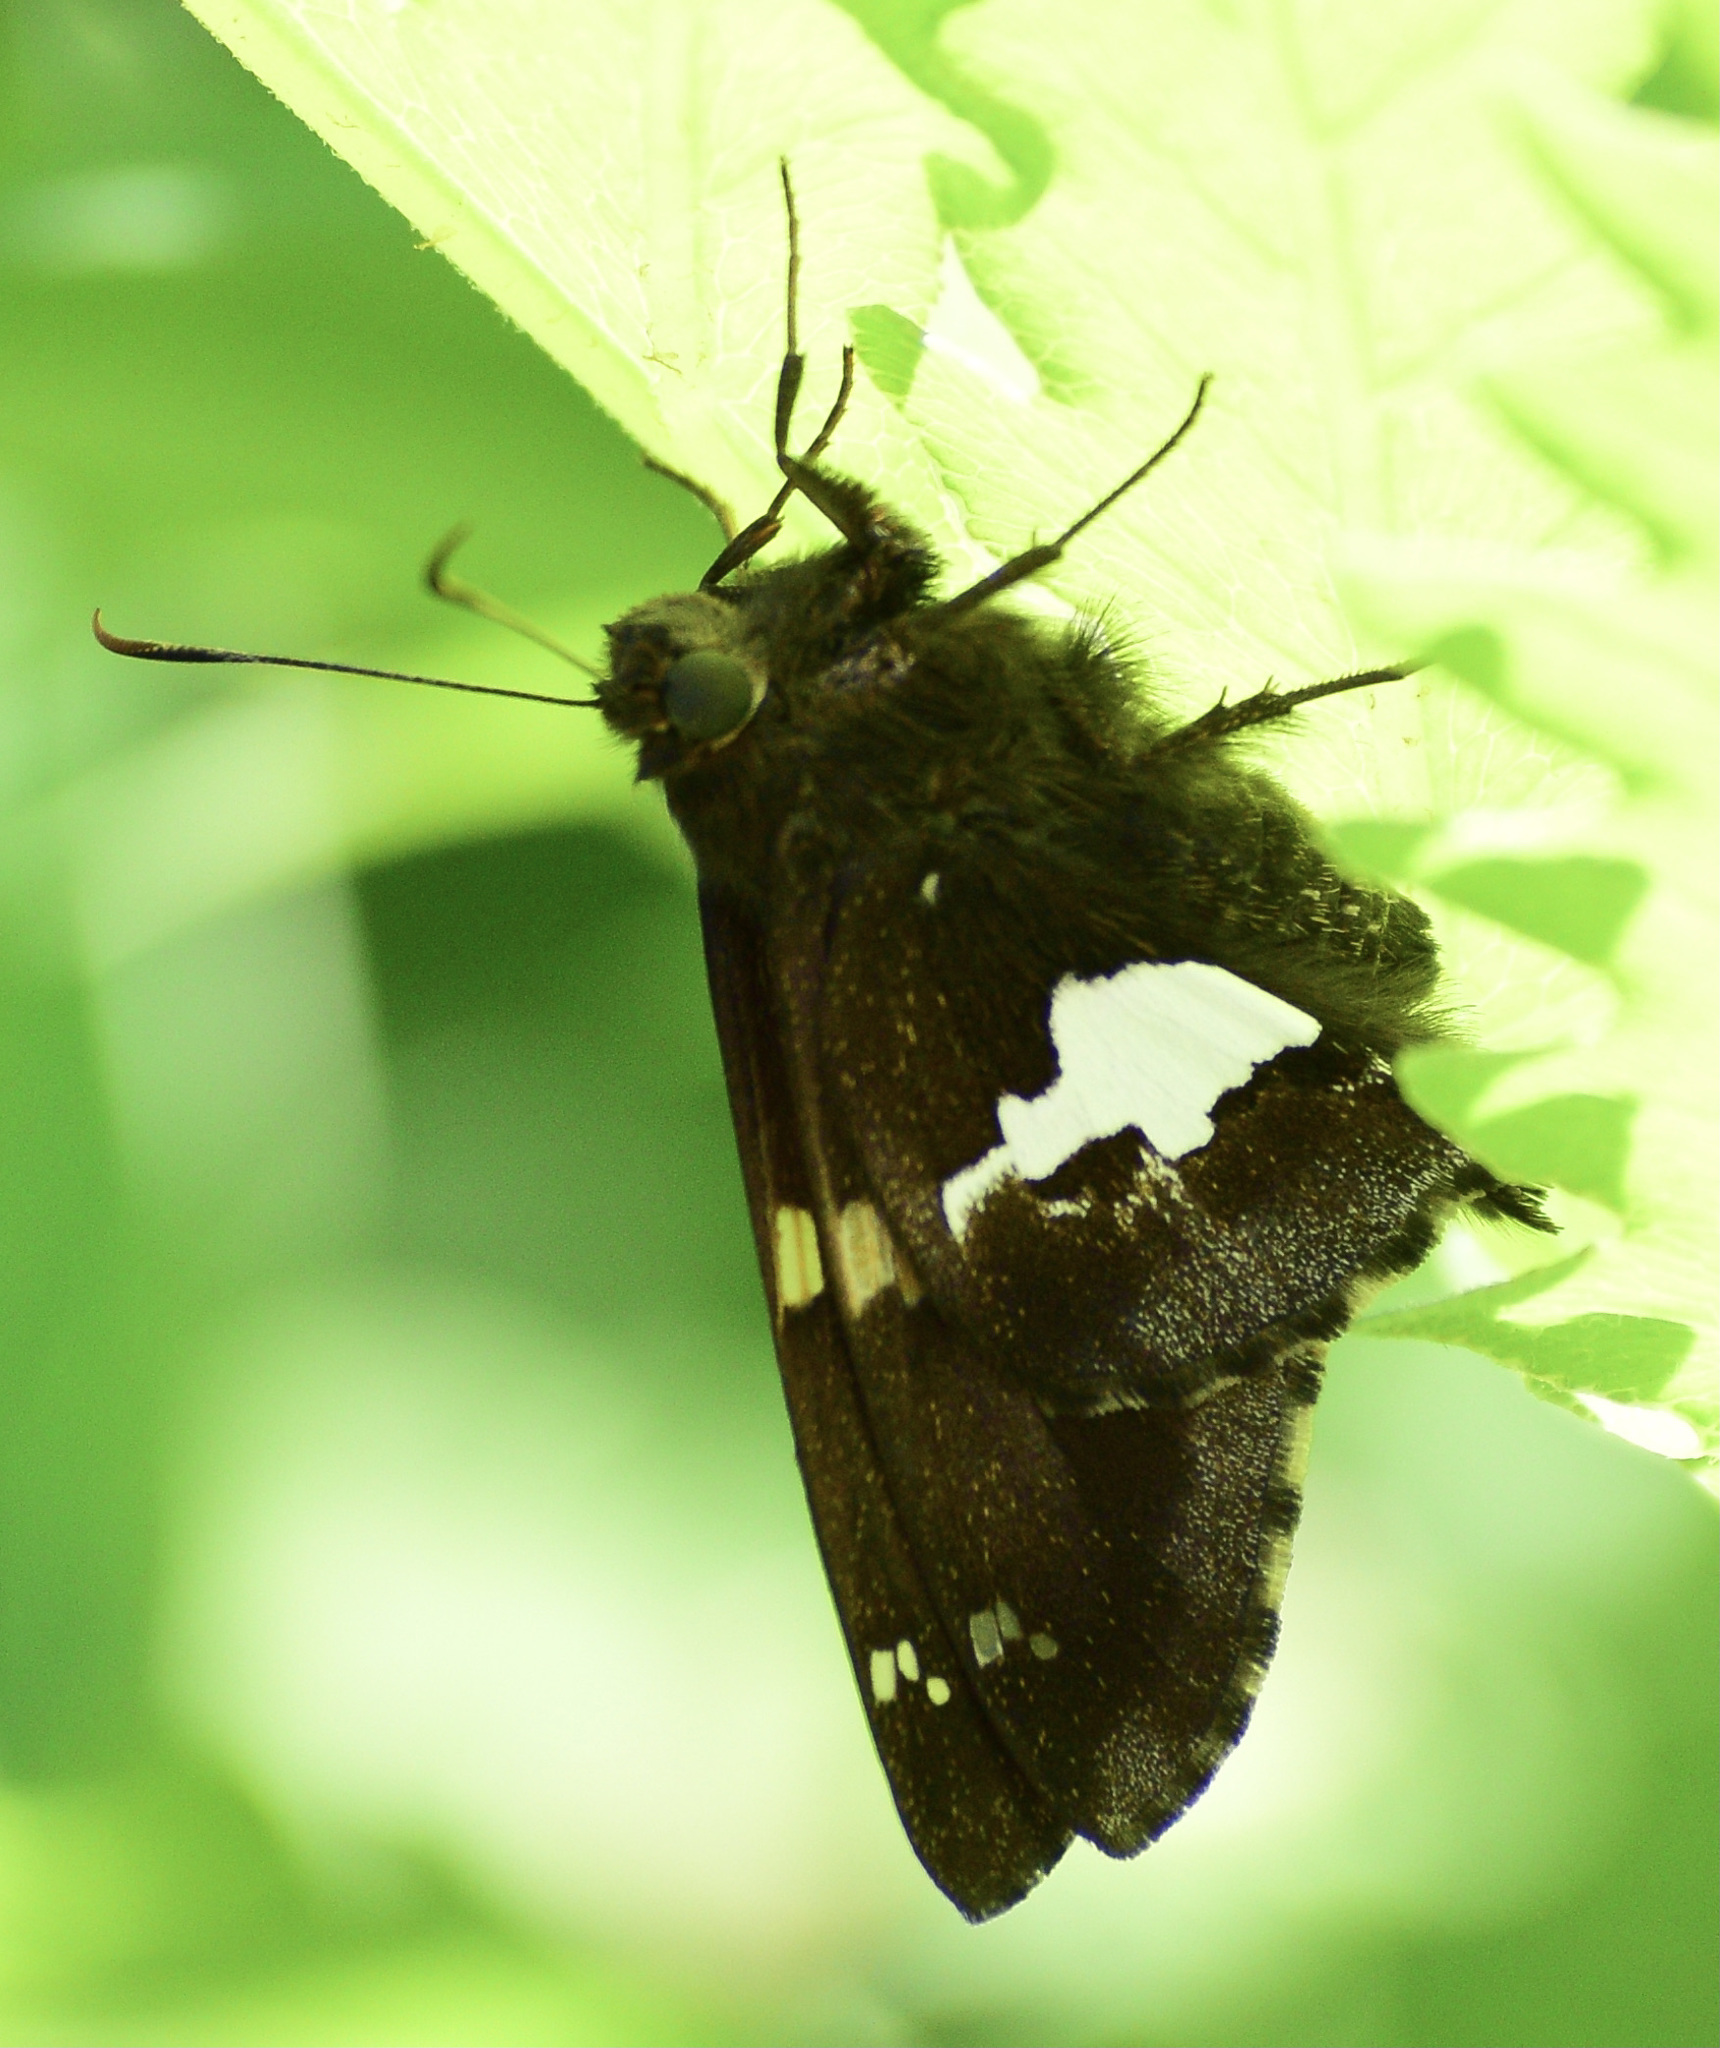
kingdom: Animalia
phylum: Arthropoda
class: Insecta
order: Lepidoptera
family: Hesperiidae
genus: Epargyreus
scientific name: Epargyreus clarus
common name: Silver-spotted skipper
